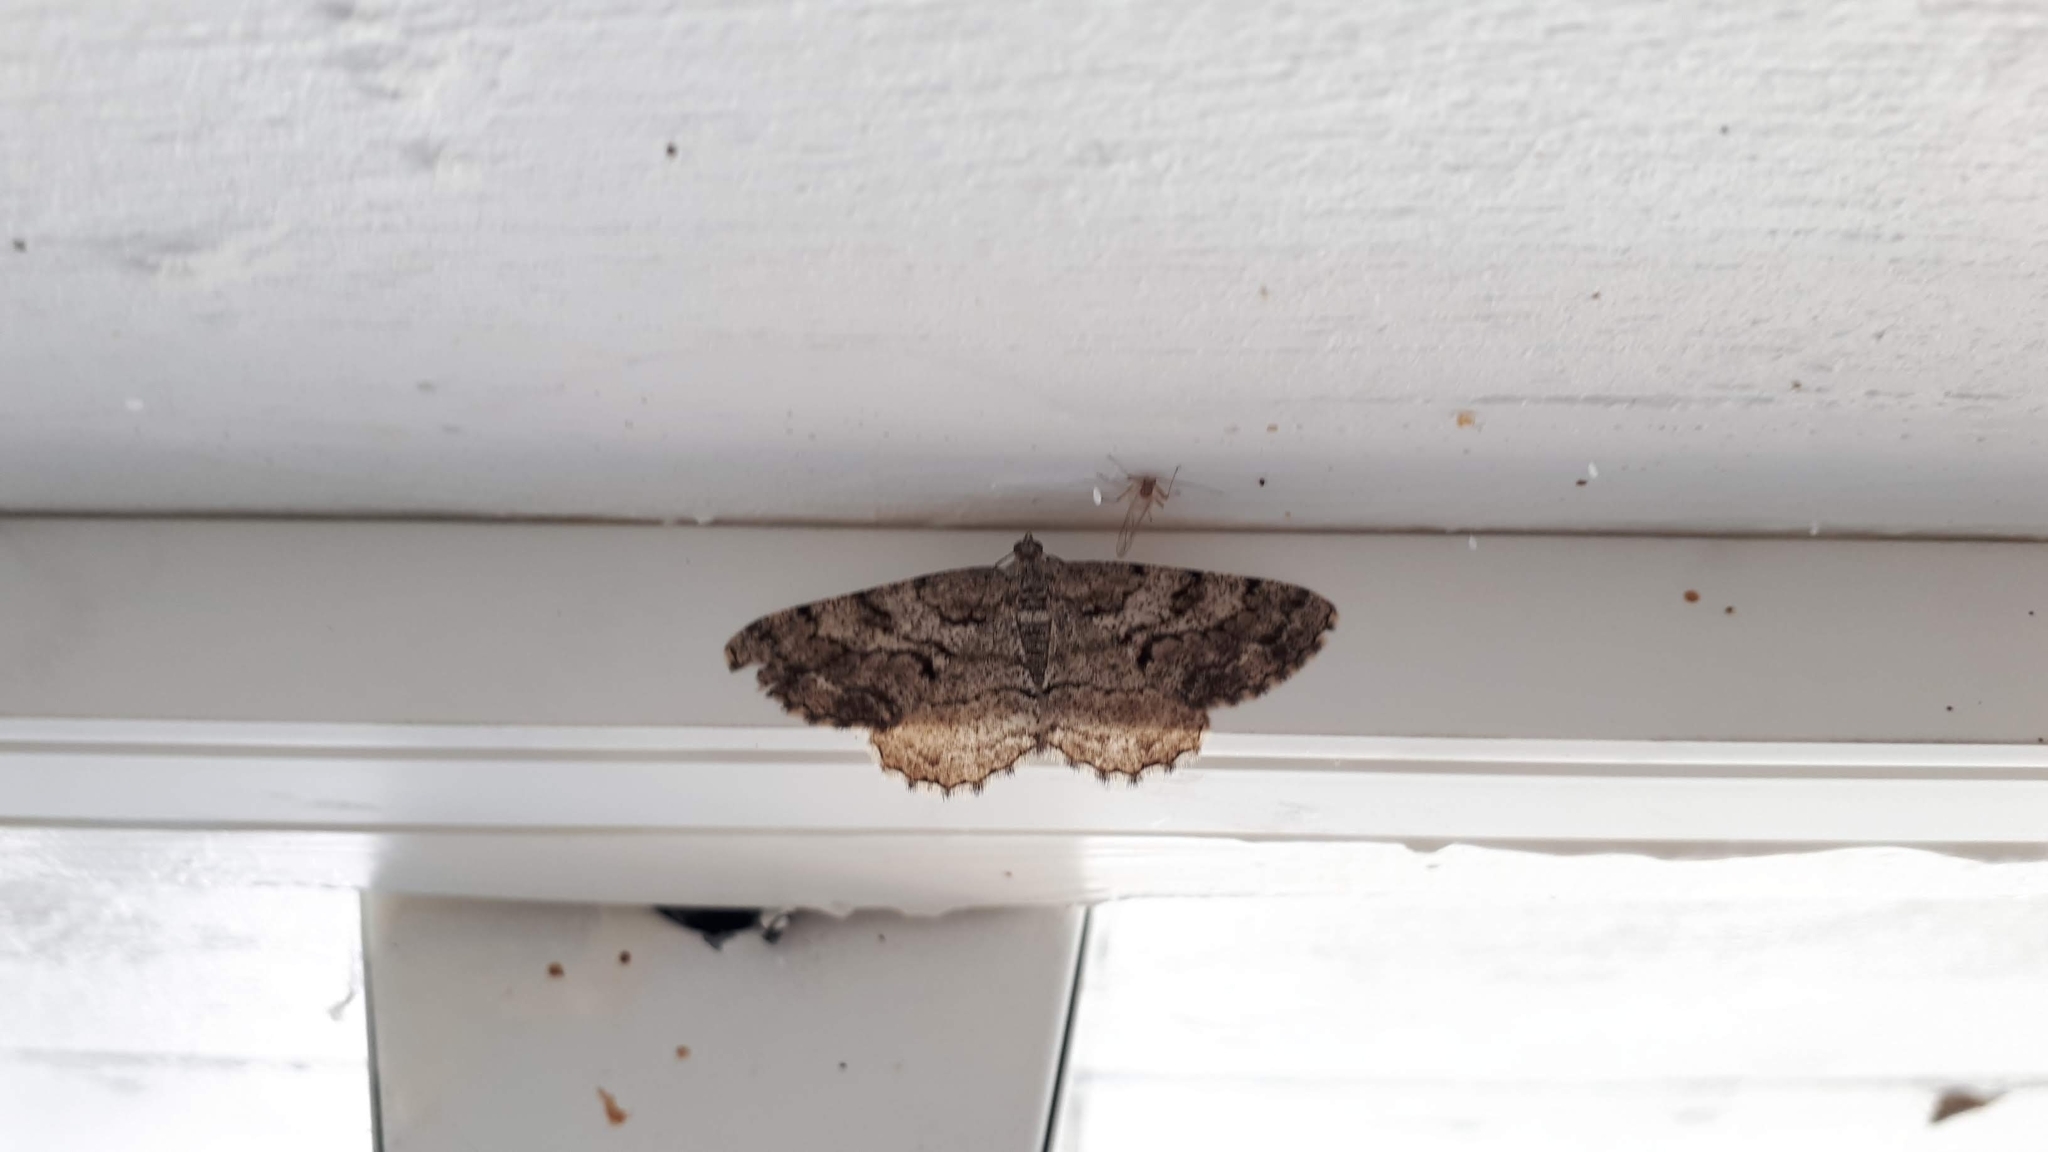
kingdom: Animalia
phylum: Arthropoda
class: Insecta
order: Lepidoptera
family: Geometridae
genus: Peribatodes
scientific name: Peribatodes secundaria
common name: Feathered beauty
